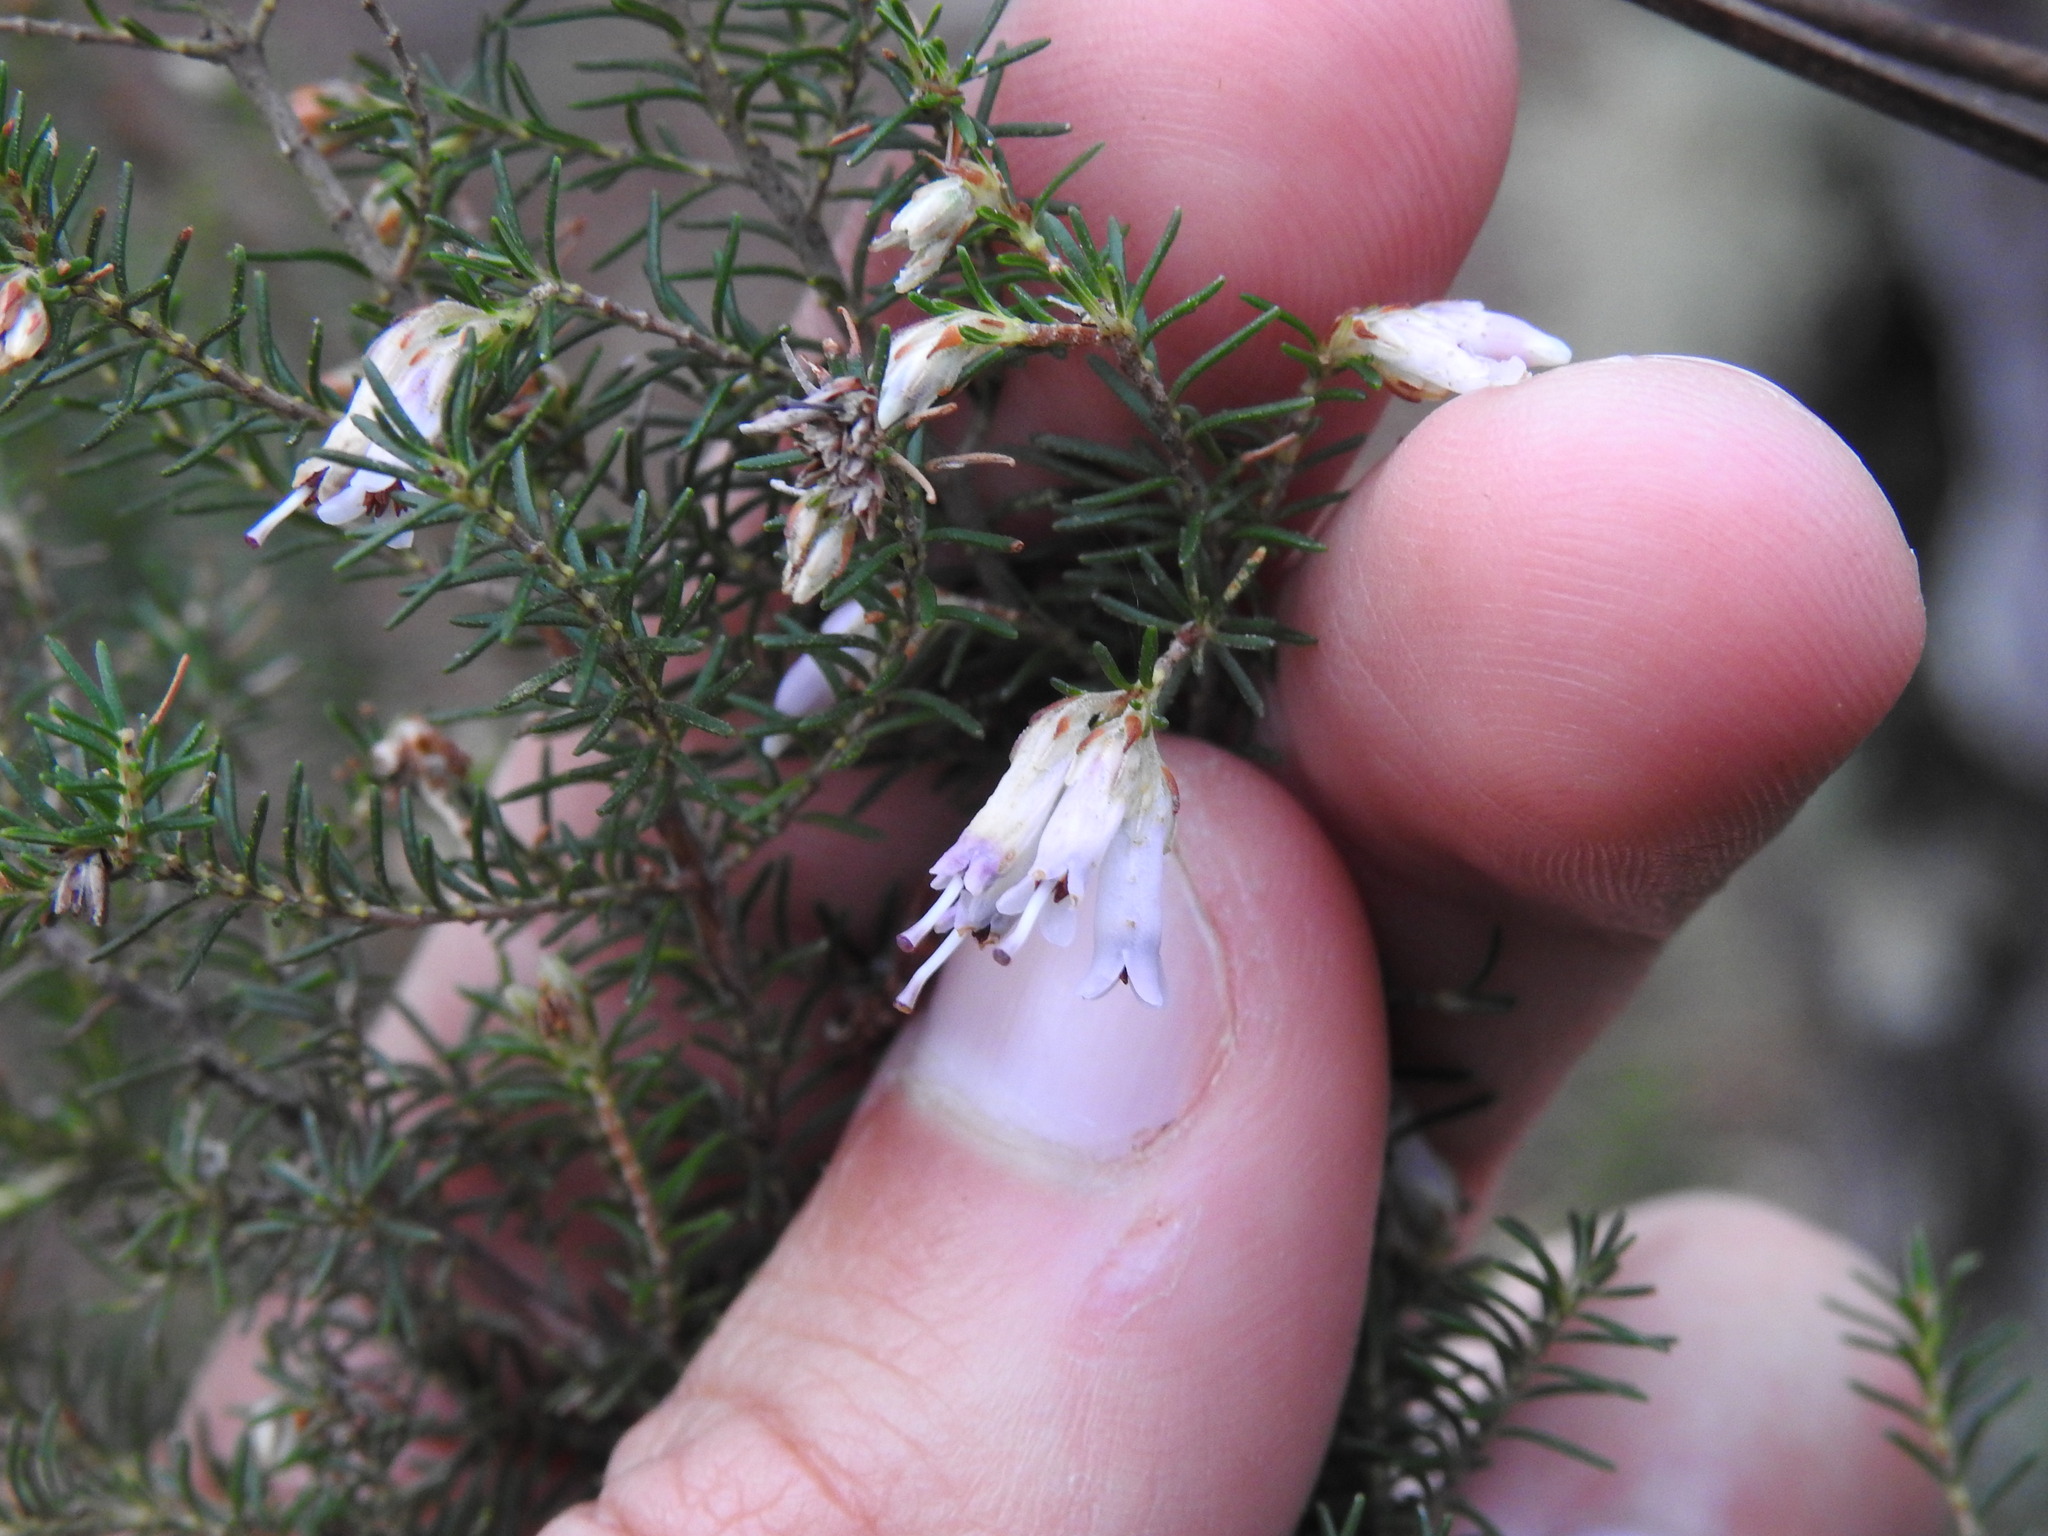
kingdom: Plantae
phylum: Tracheophyta
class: Magnoliopsida
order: Ericales
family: Ericaceae
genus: Erica
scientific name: Erica australis
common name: Spanish heath
